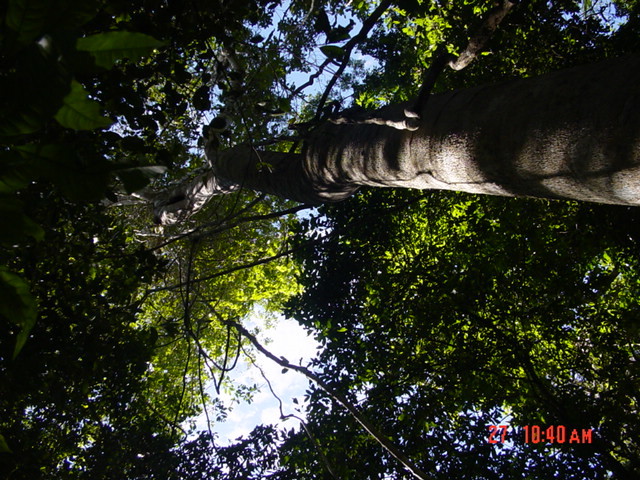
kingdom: Plantae
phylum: Tracheophyta
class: Magnoliopsida
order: Fabales
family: Fabaceae
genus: Lonchocarpus
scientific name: Lonchocarpus castilloi
